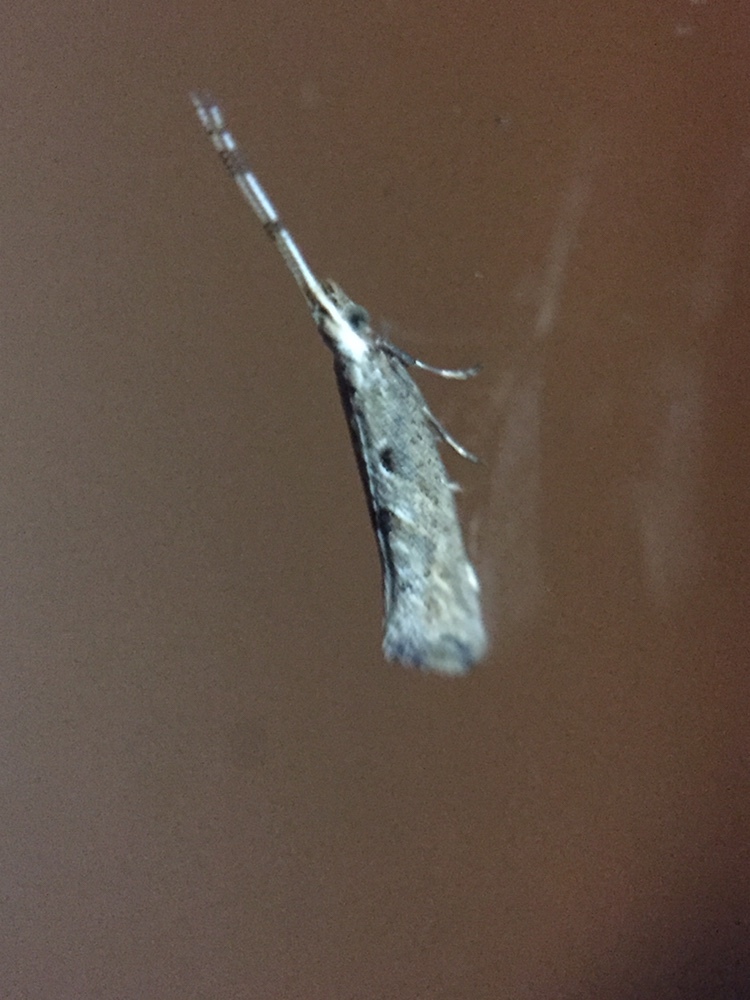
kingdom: Animalia
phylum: Arthropoda
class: Insecta
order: Lepidoptera
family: Plutellidae
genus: Leuroperna
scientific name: Leuroperna sera
